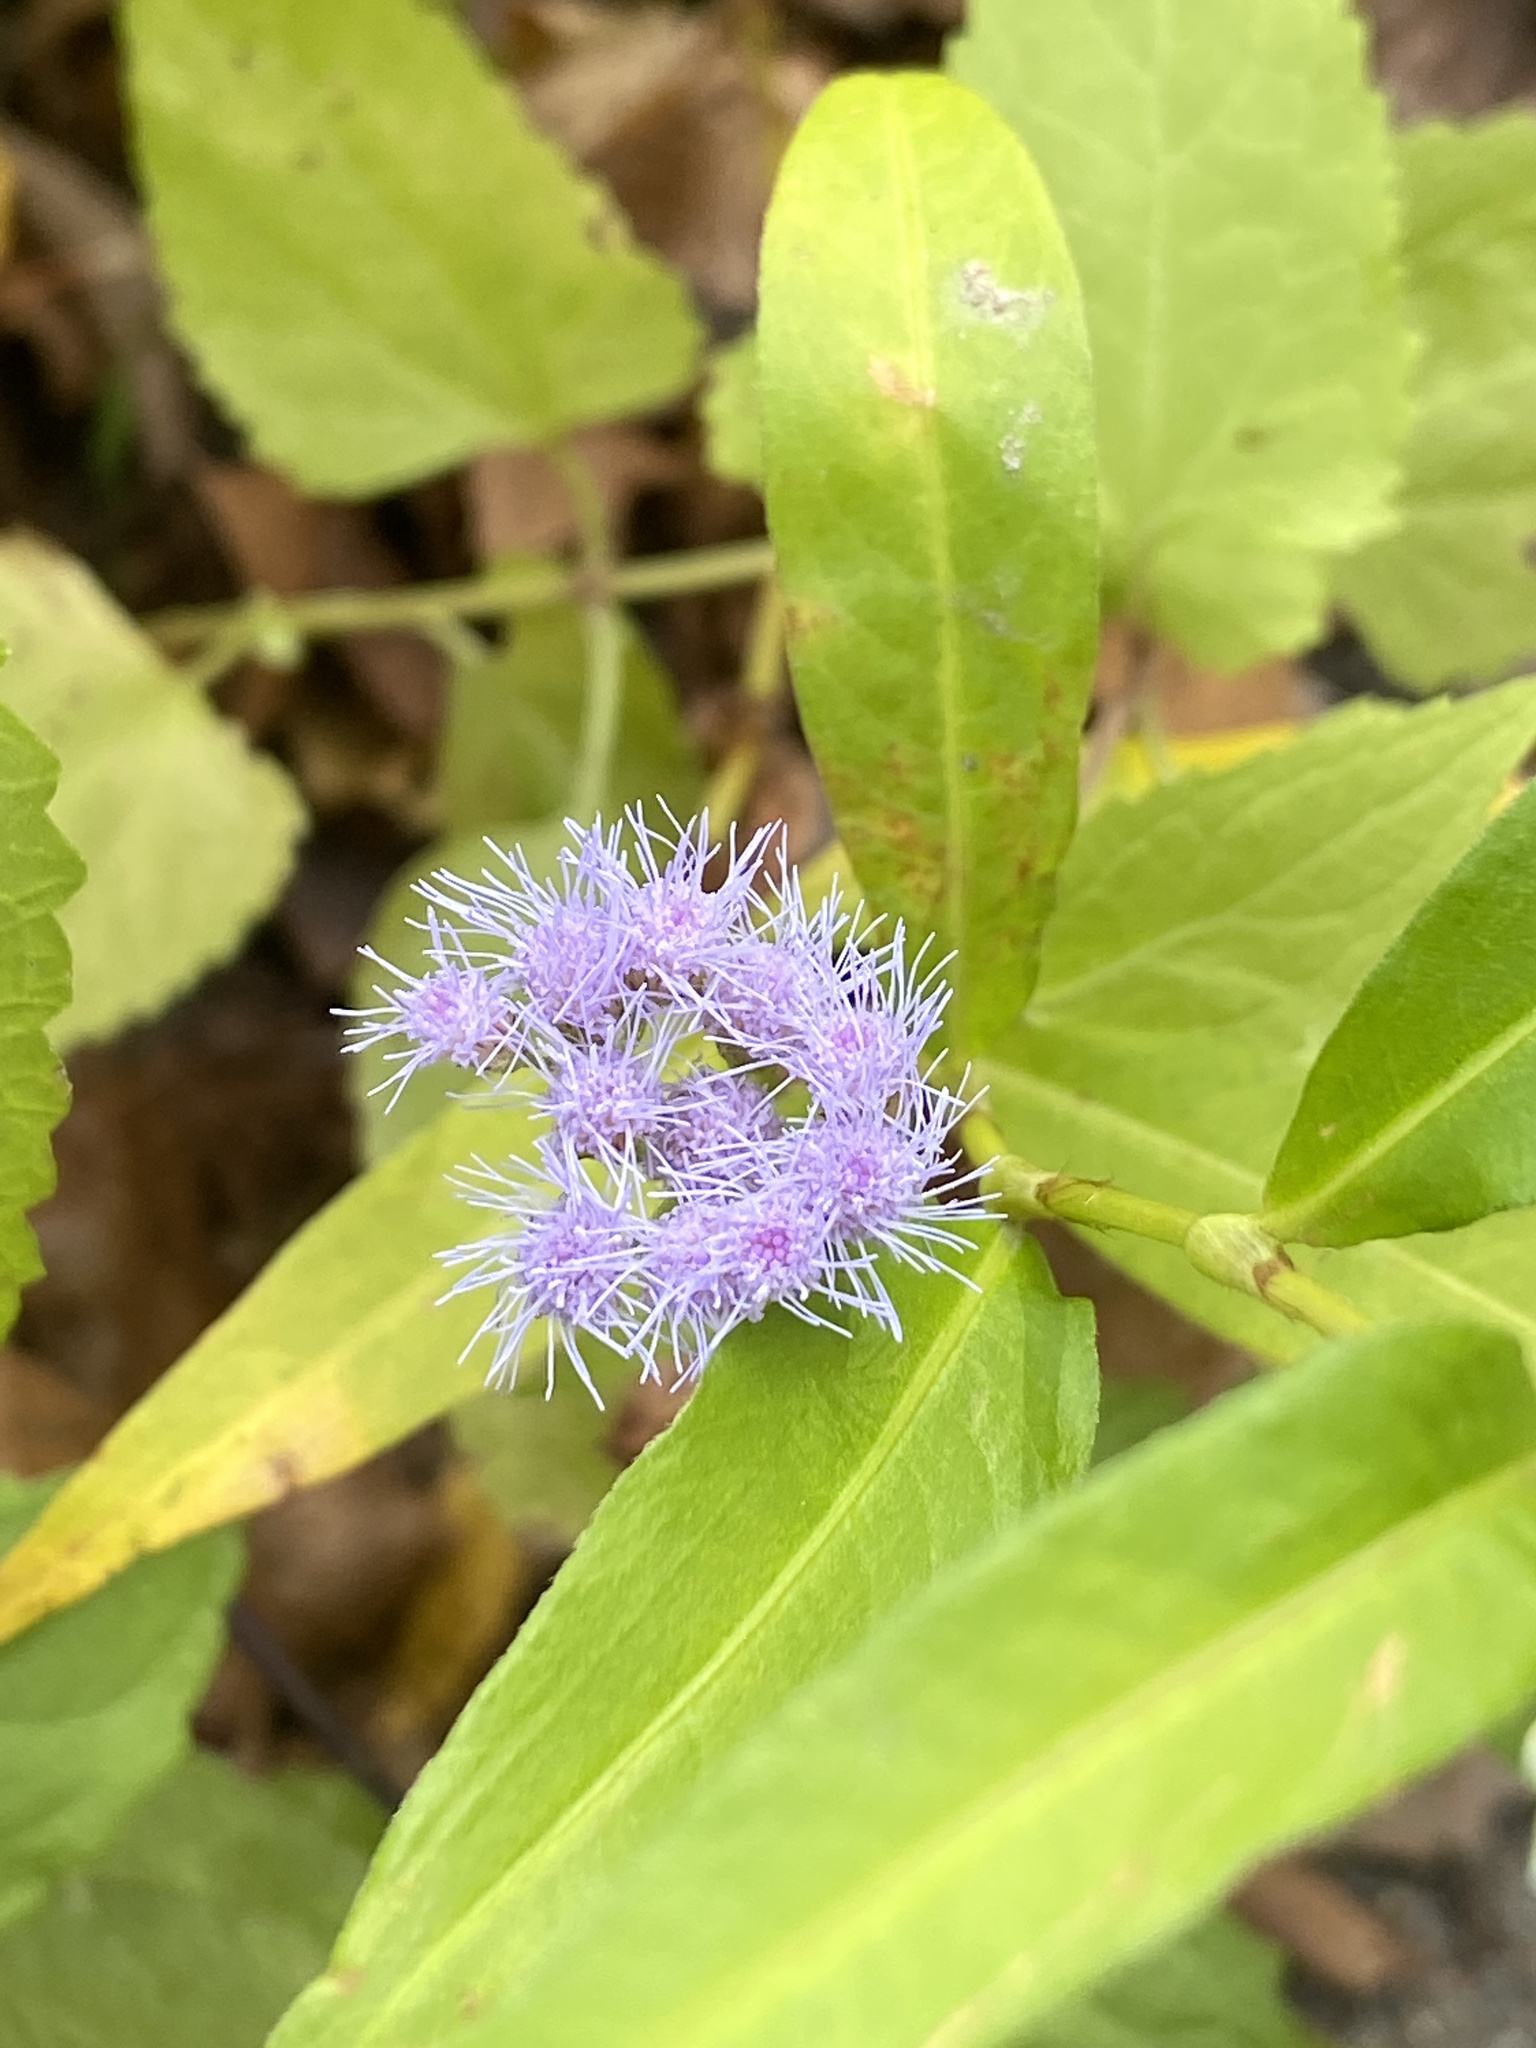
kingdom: Plantae
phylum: Tracheophyta
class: Magnoliopsida
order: Asterales
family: Asteraceae
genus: Conoclinium
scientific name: Conoclinium coelestinum
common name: Blue mistflower
